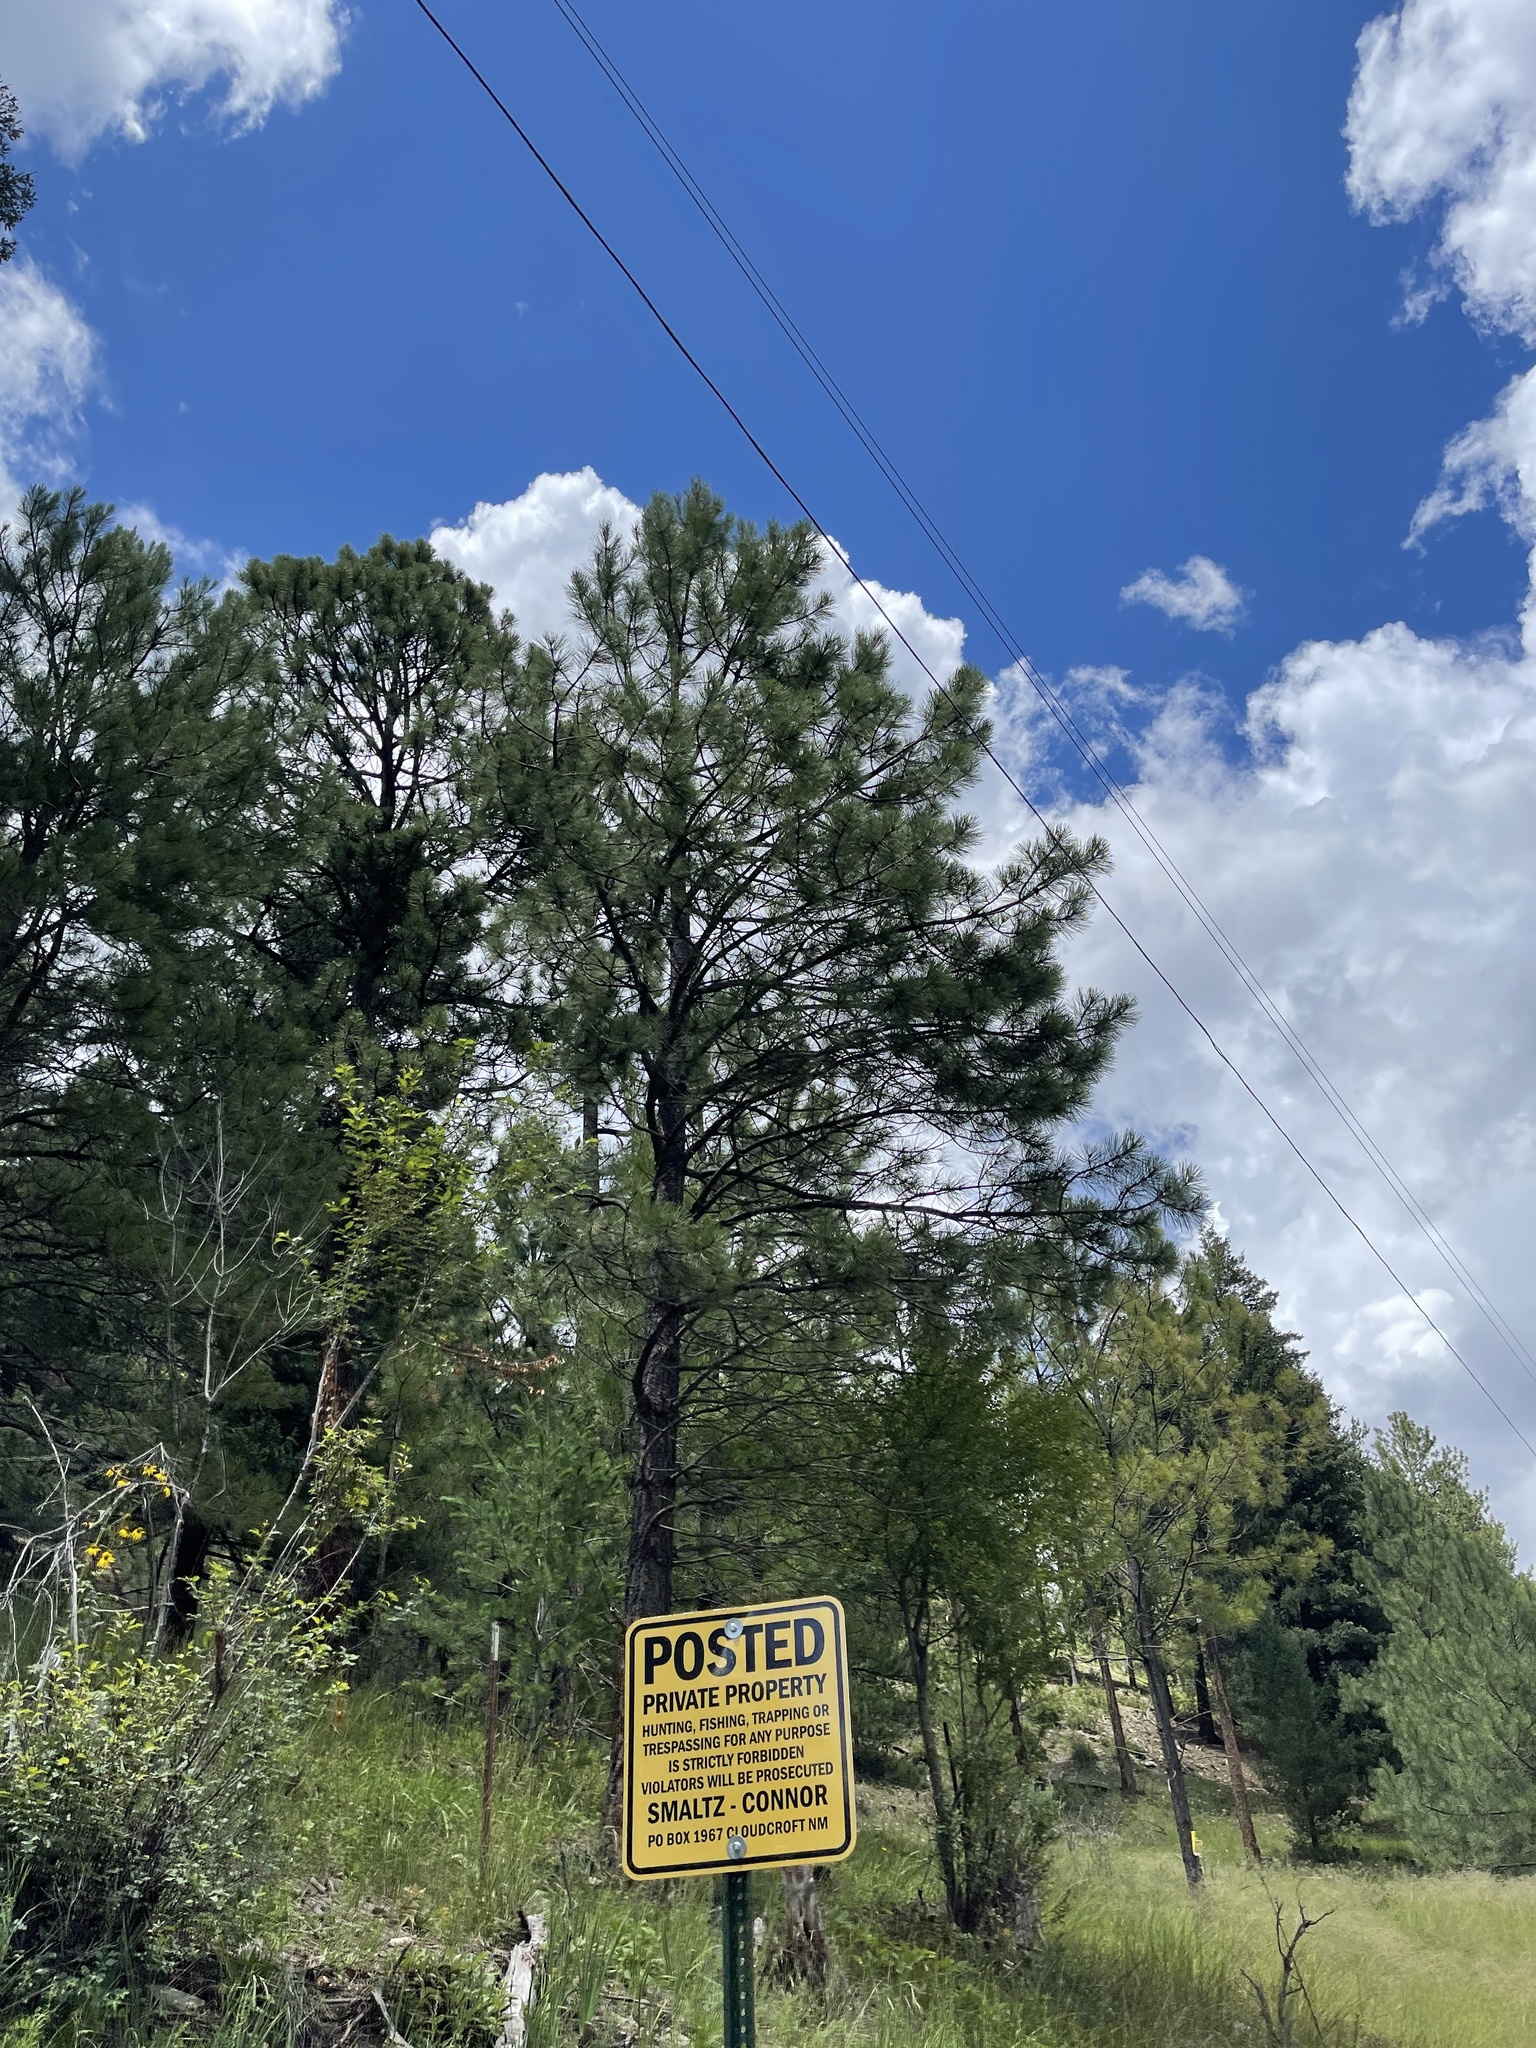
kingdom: Plantae
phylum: Tracheophyta
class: Pinopsida
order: Pinales
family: Pinaceae
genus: Pinus
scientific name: Pinus ponderosa
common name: Western yellow-pine
